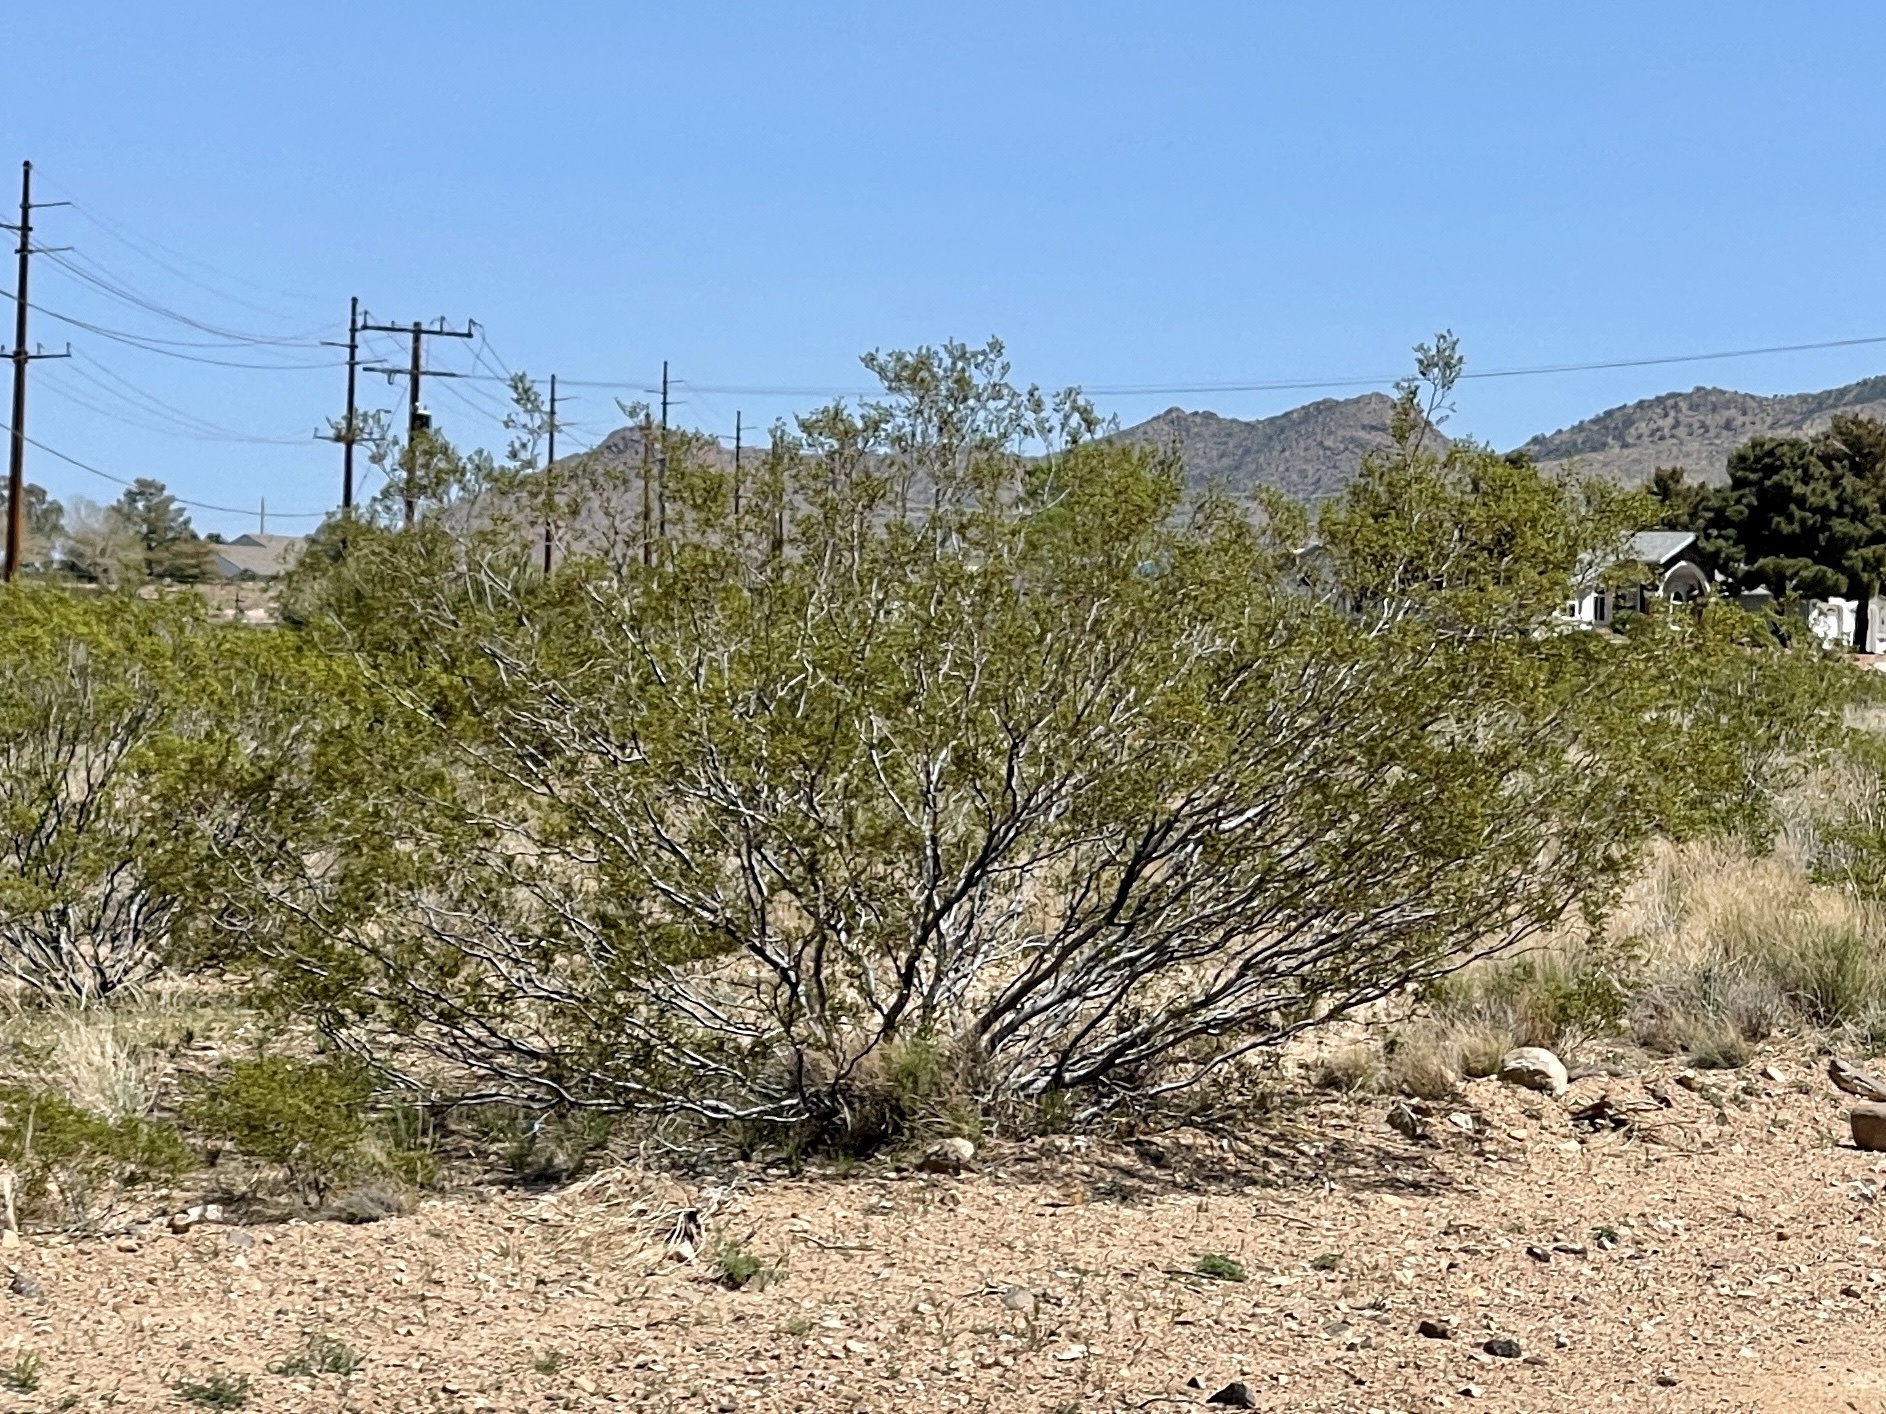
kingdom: Plantae
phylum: Tracheophyta
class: Magnoliopsida
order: Zygophyllales
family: Zygophyllaceae
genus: Larrea
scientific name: Larrea tridentata
